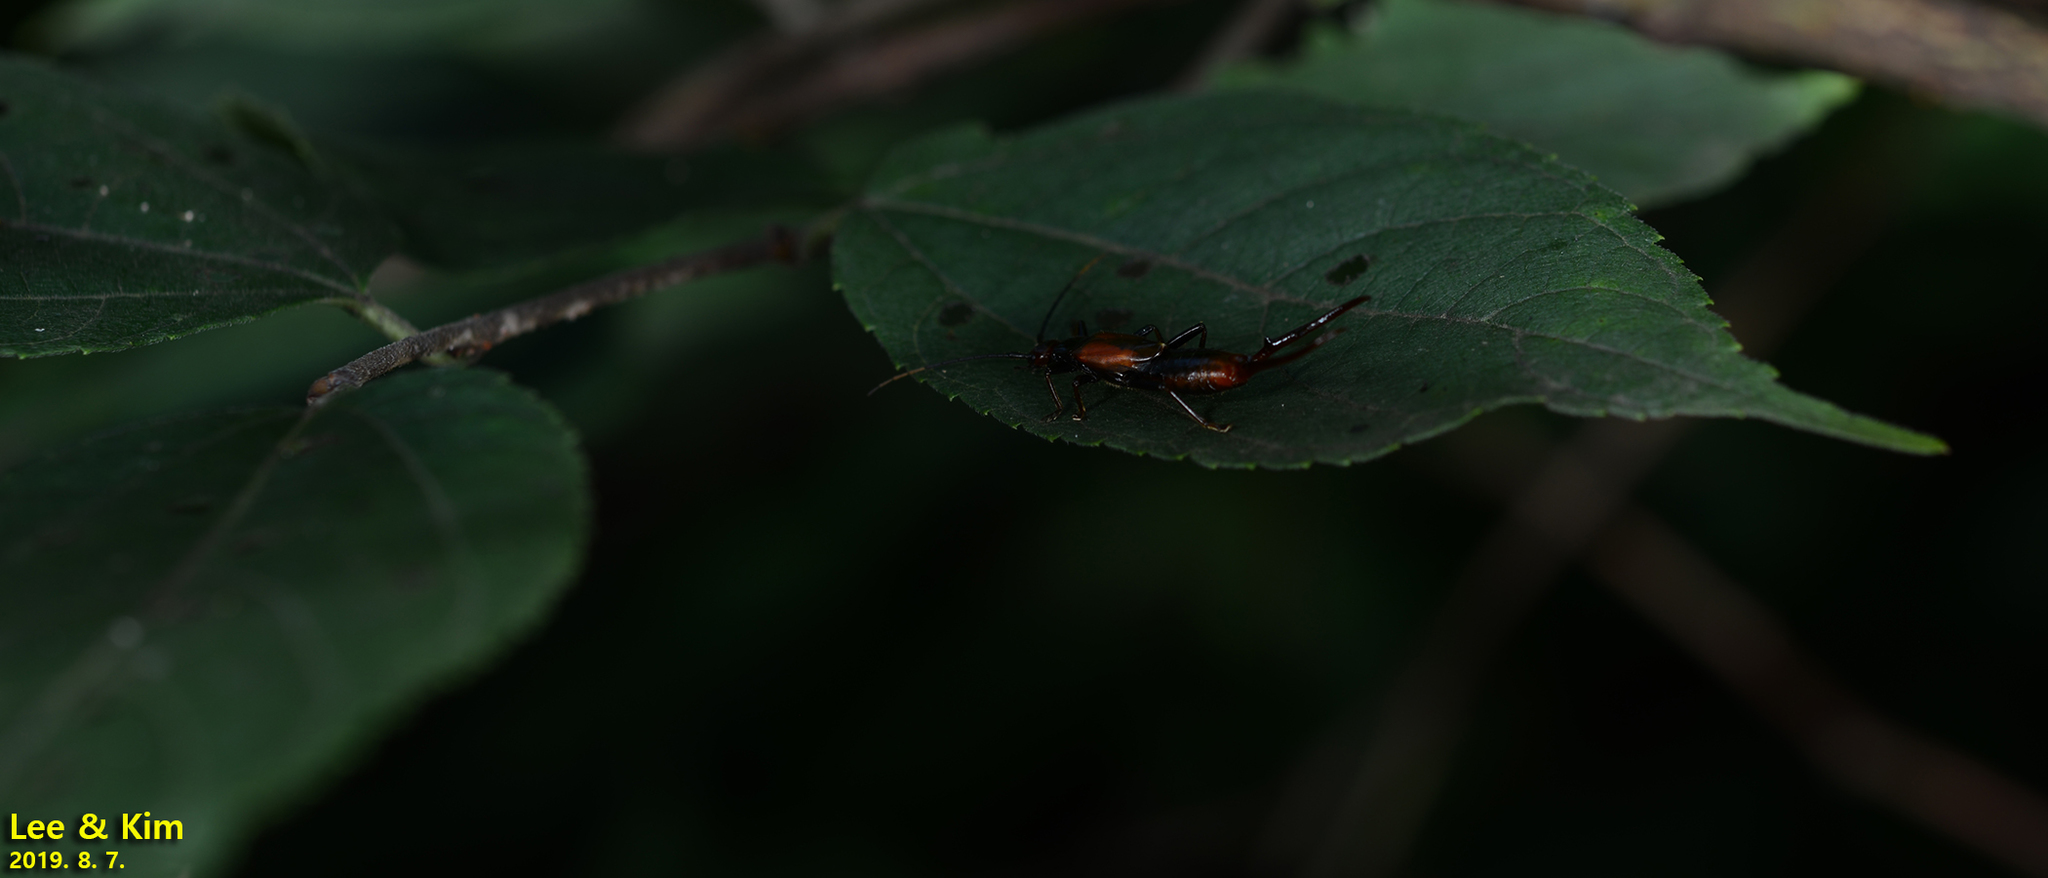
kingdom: Animalia
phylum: Arthropoda
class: Insecta
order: Dermaptera
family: Forficulidae
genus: Timomenus
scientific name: Timomenus komarovi
